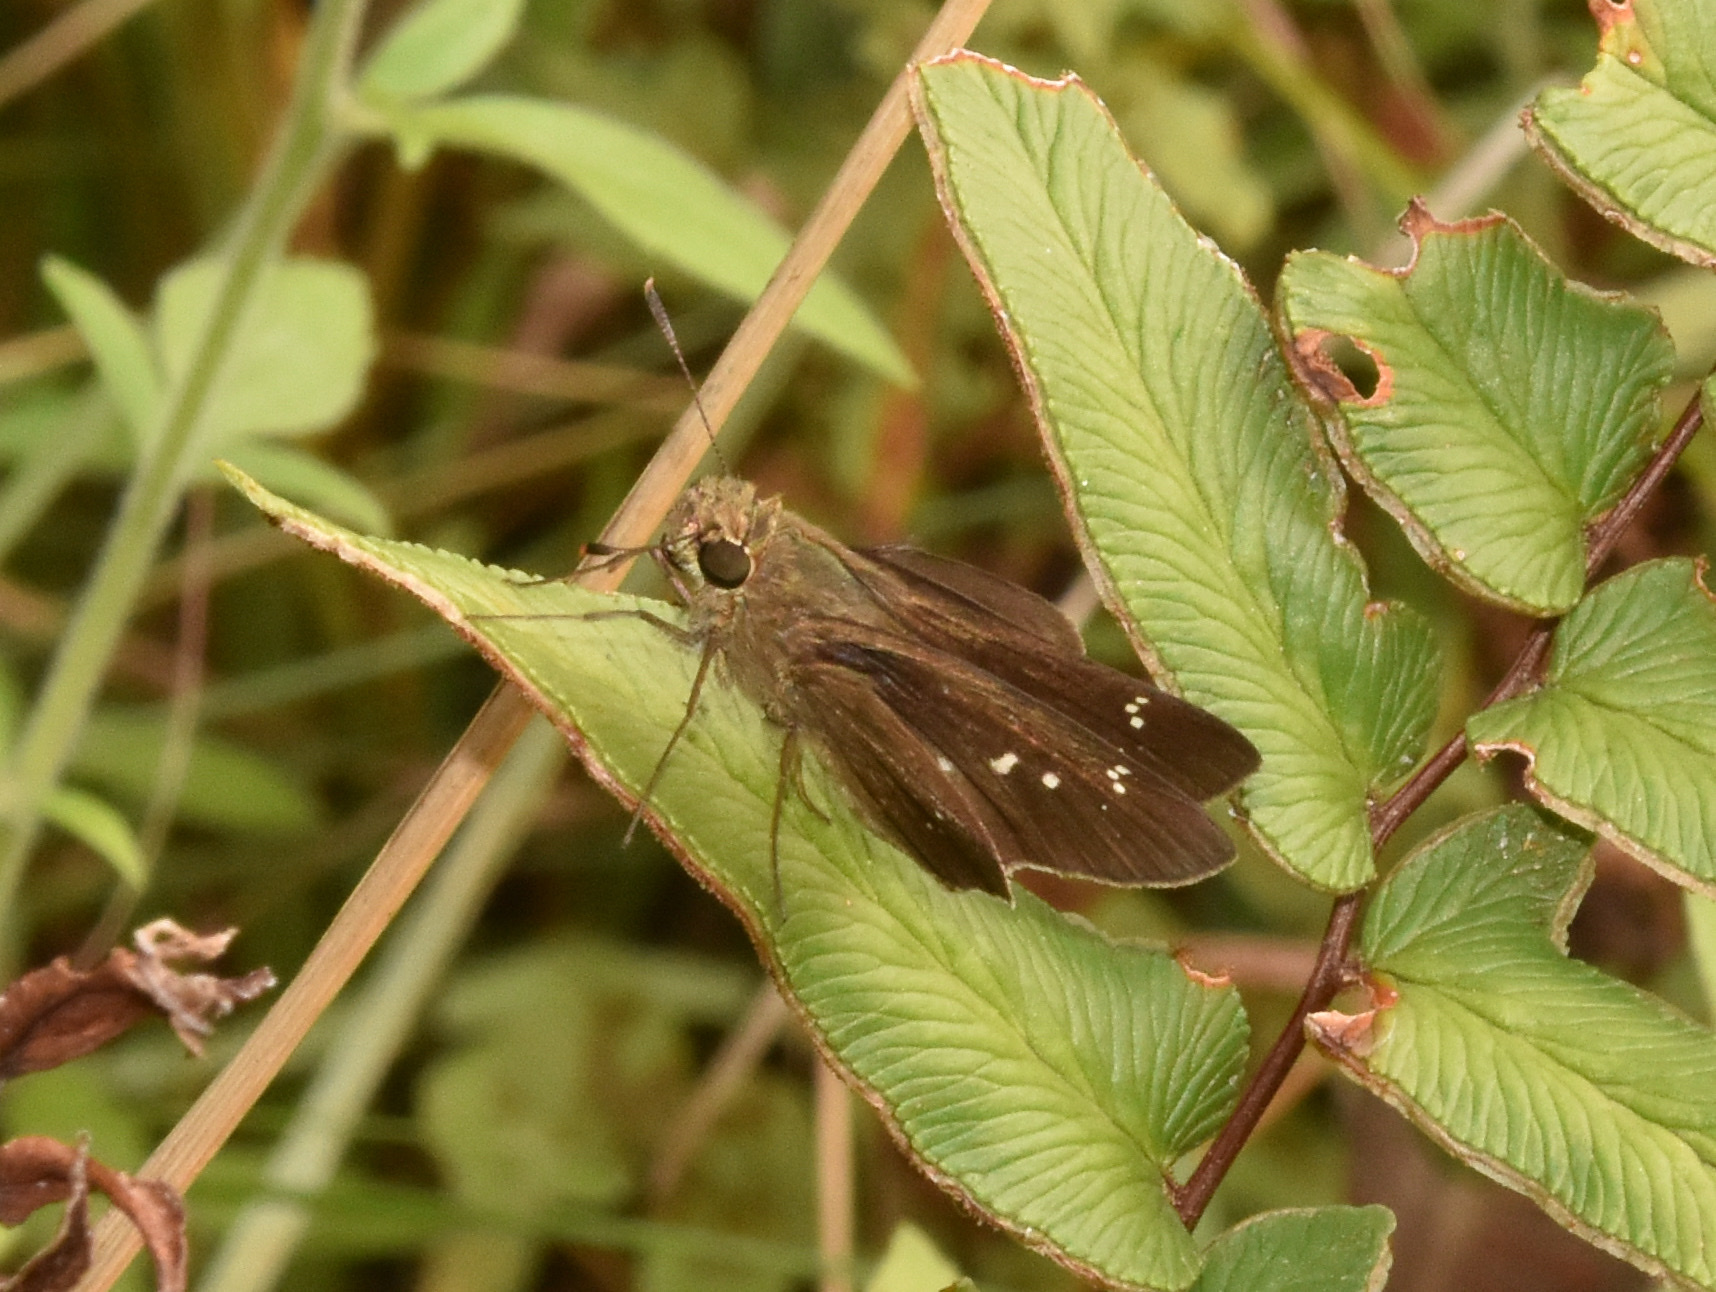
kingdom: Animalia
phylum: Arthropoda
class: Insecta
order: Lepidoptera
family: Hesperiidae
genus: Baoris
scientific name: Baoris fatuellus
